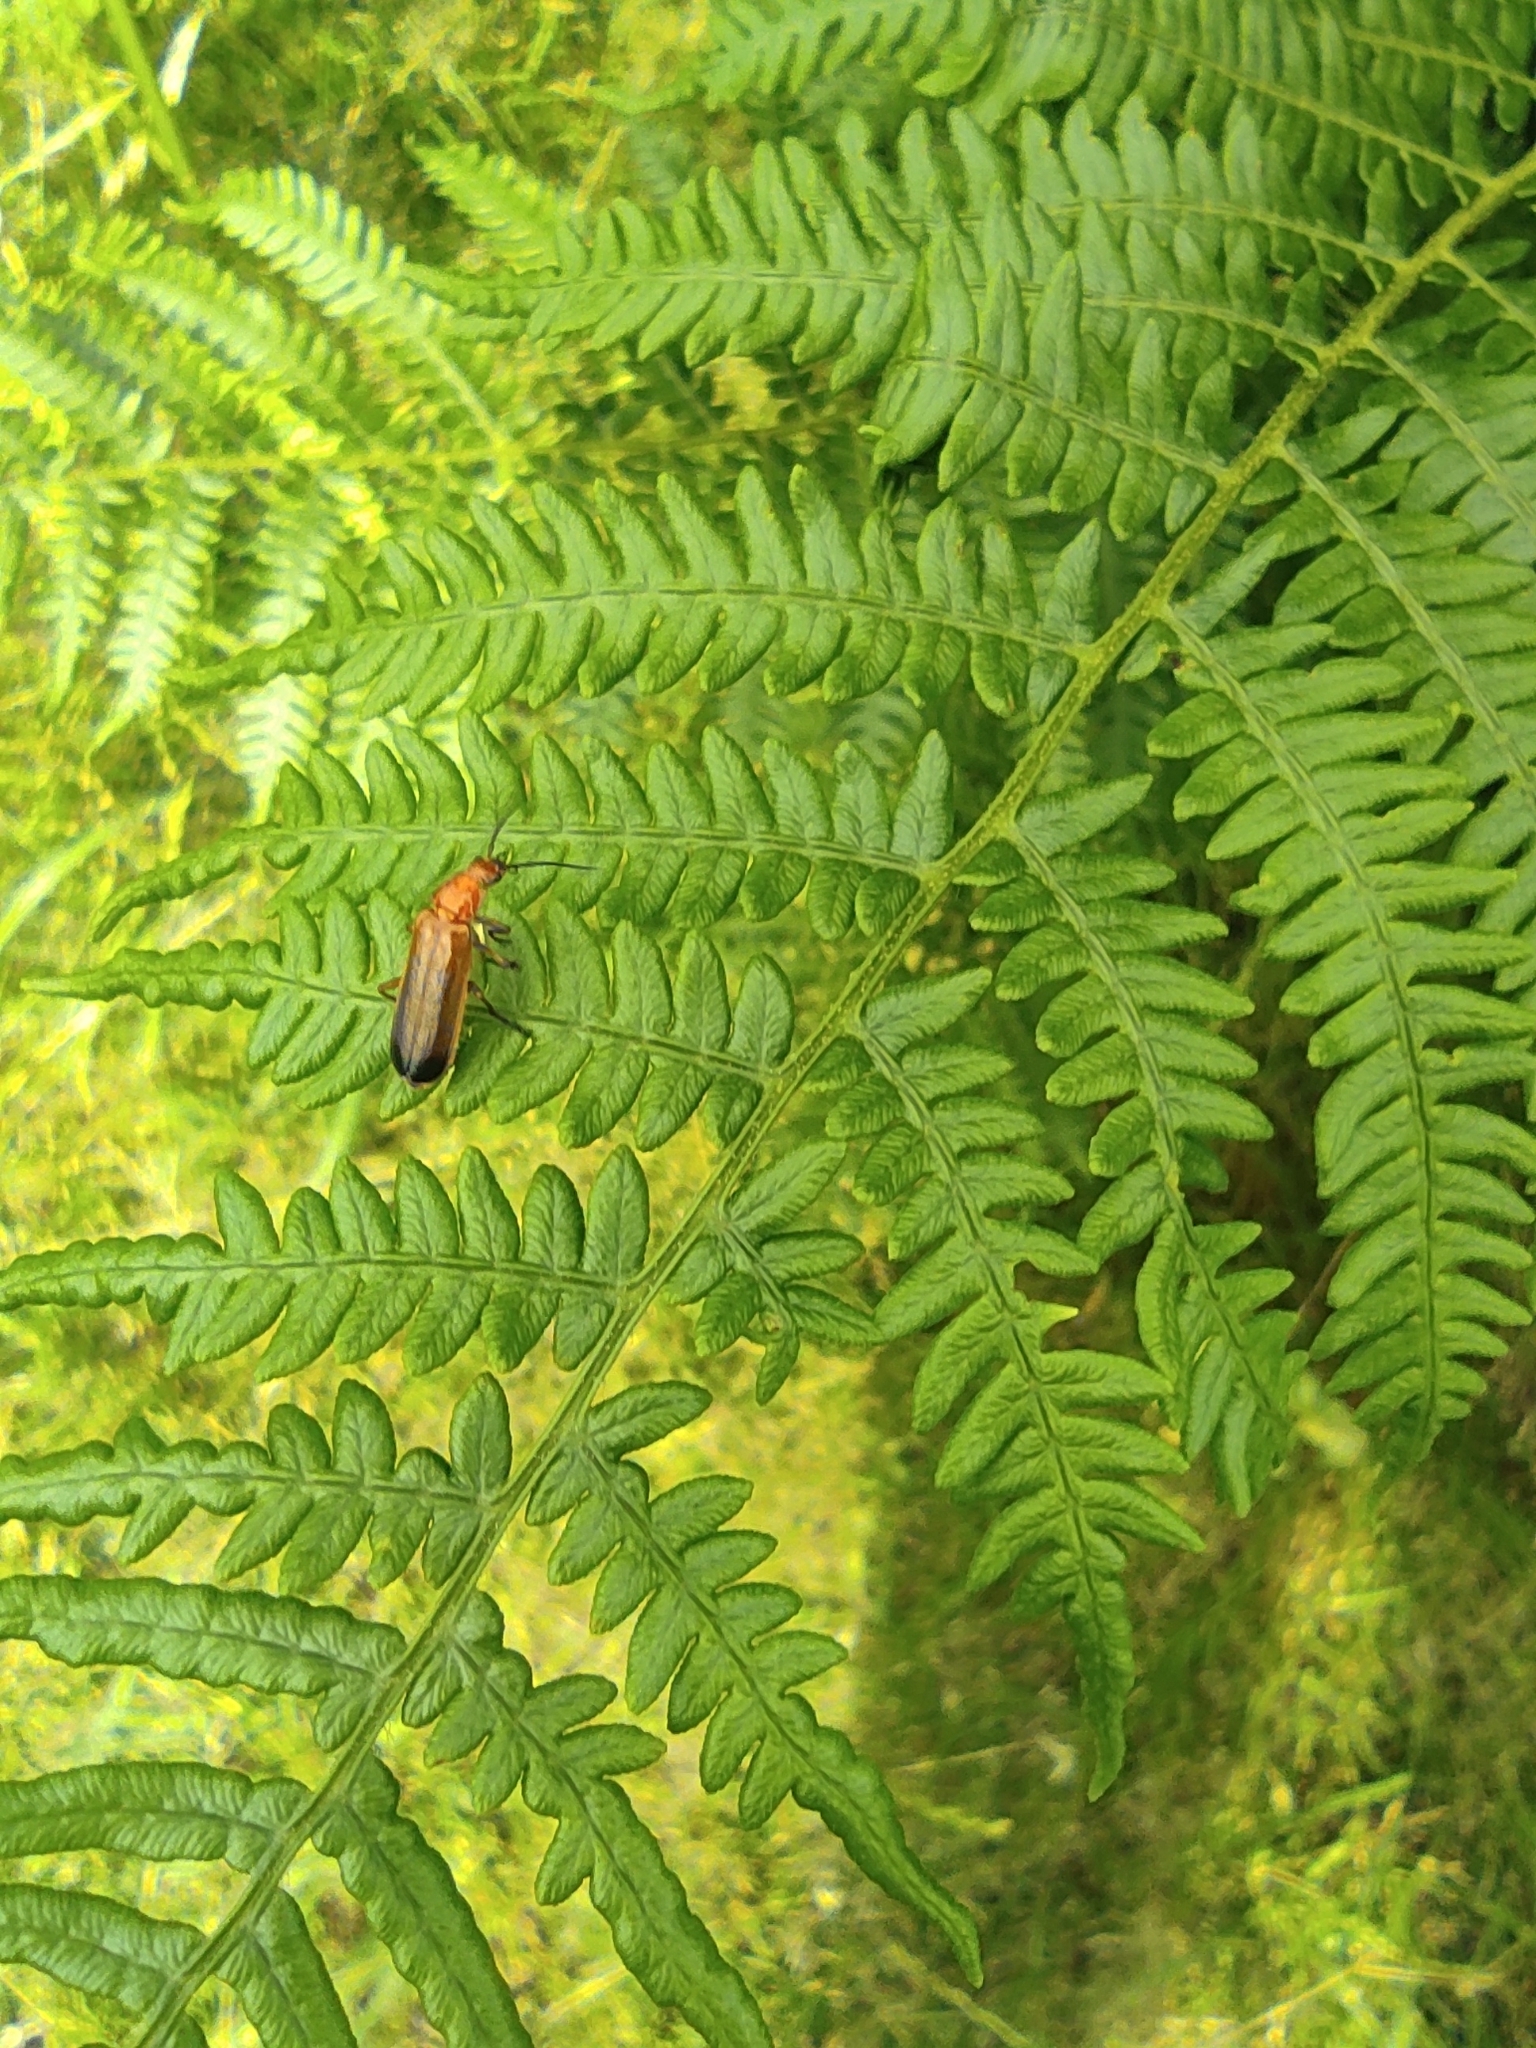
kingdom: Animalia
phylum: Arthropoda
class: Insecta
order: Coleoptera
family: Cantharidae
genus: Rhagonycha
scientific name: Rhagonycha fulva
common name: Common red soldier beetle
